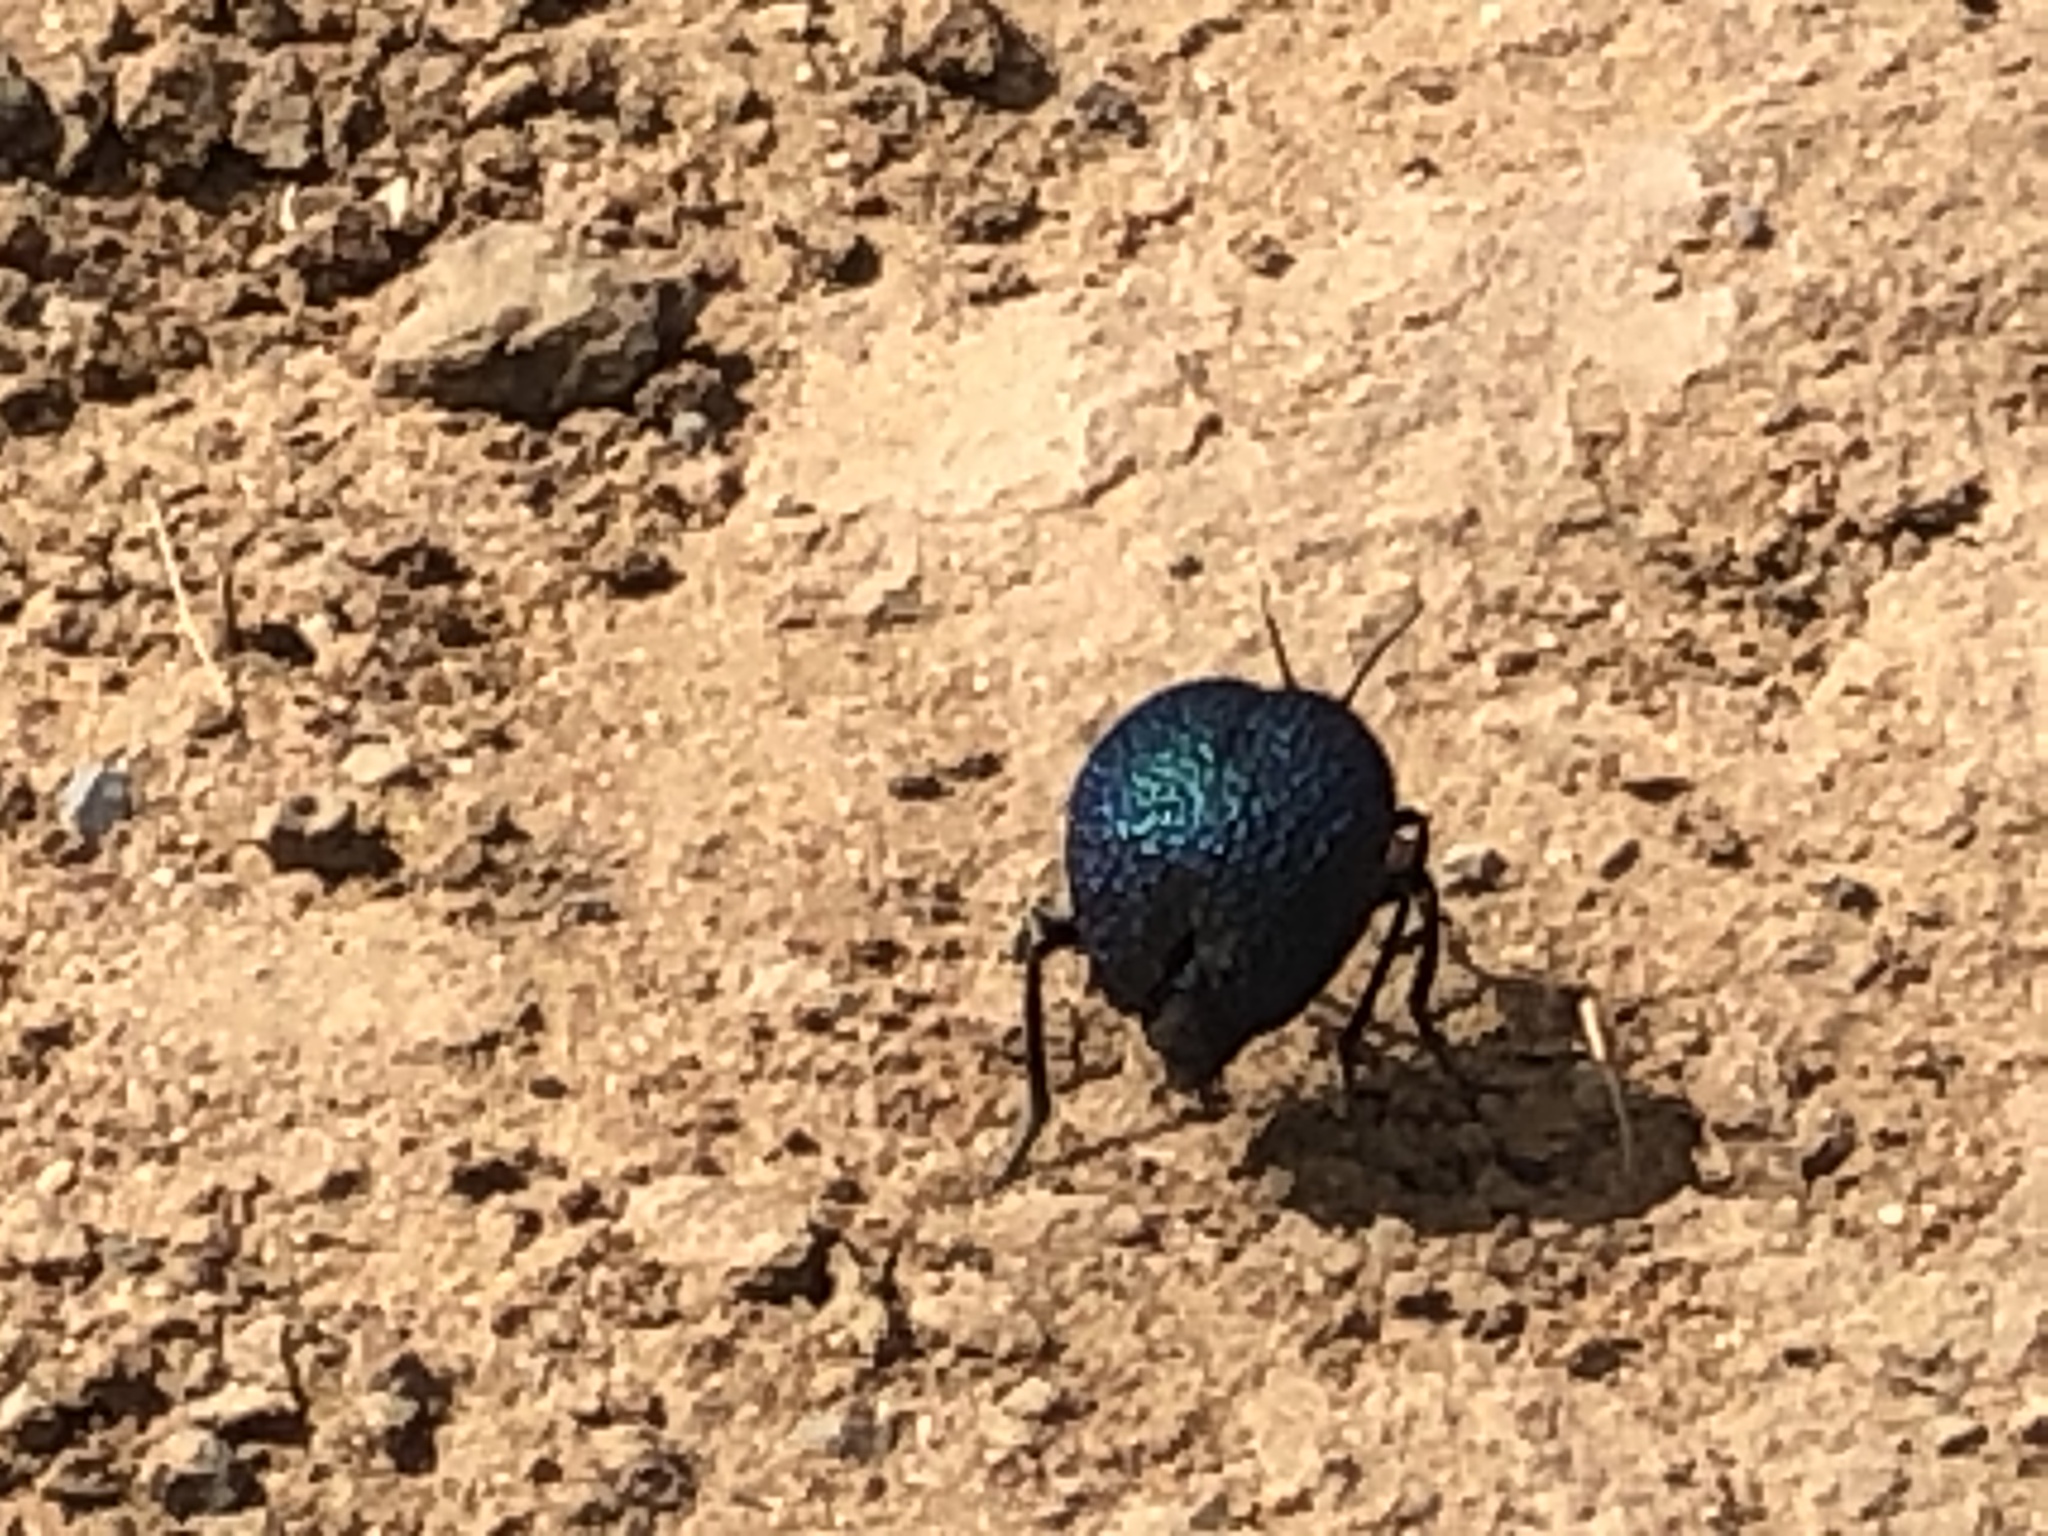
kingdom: Animalia
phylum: Arthropoda
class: Insecta
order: Coleoptera
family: Meloidae
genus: Cysteodemus
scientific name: Cysteodemus wislizeni
